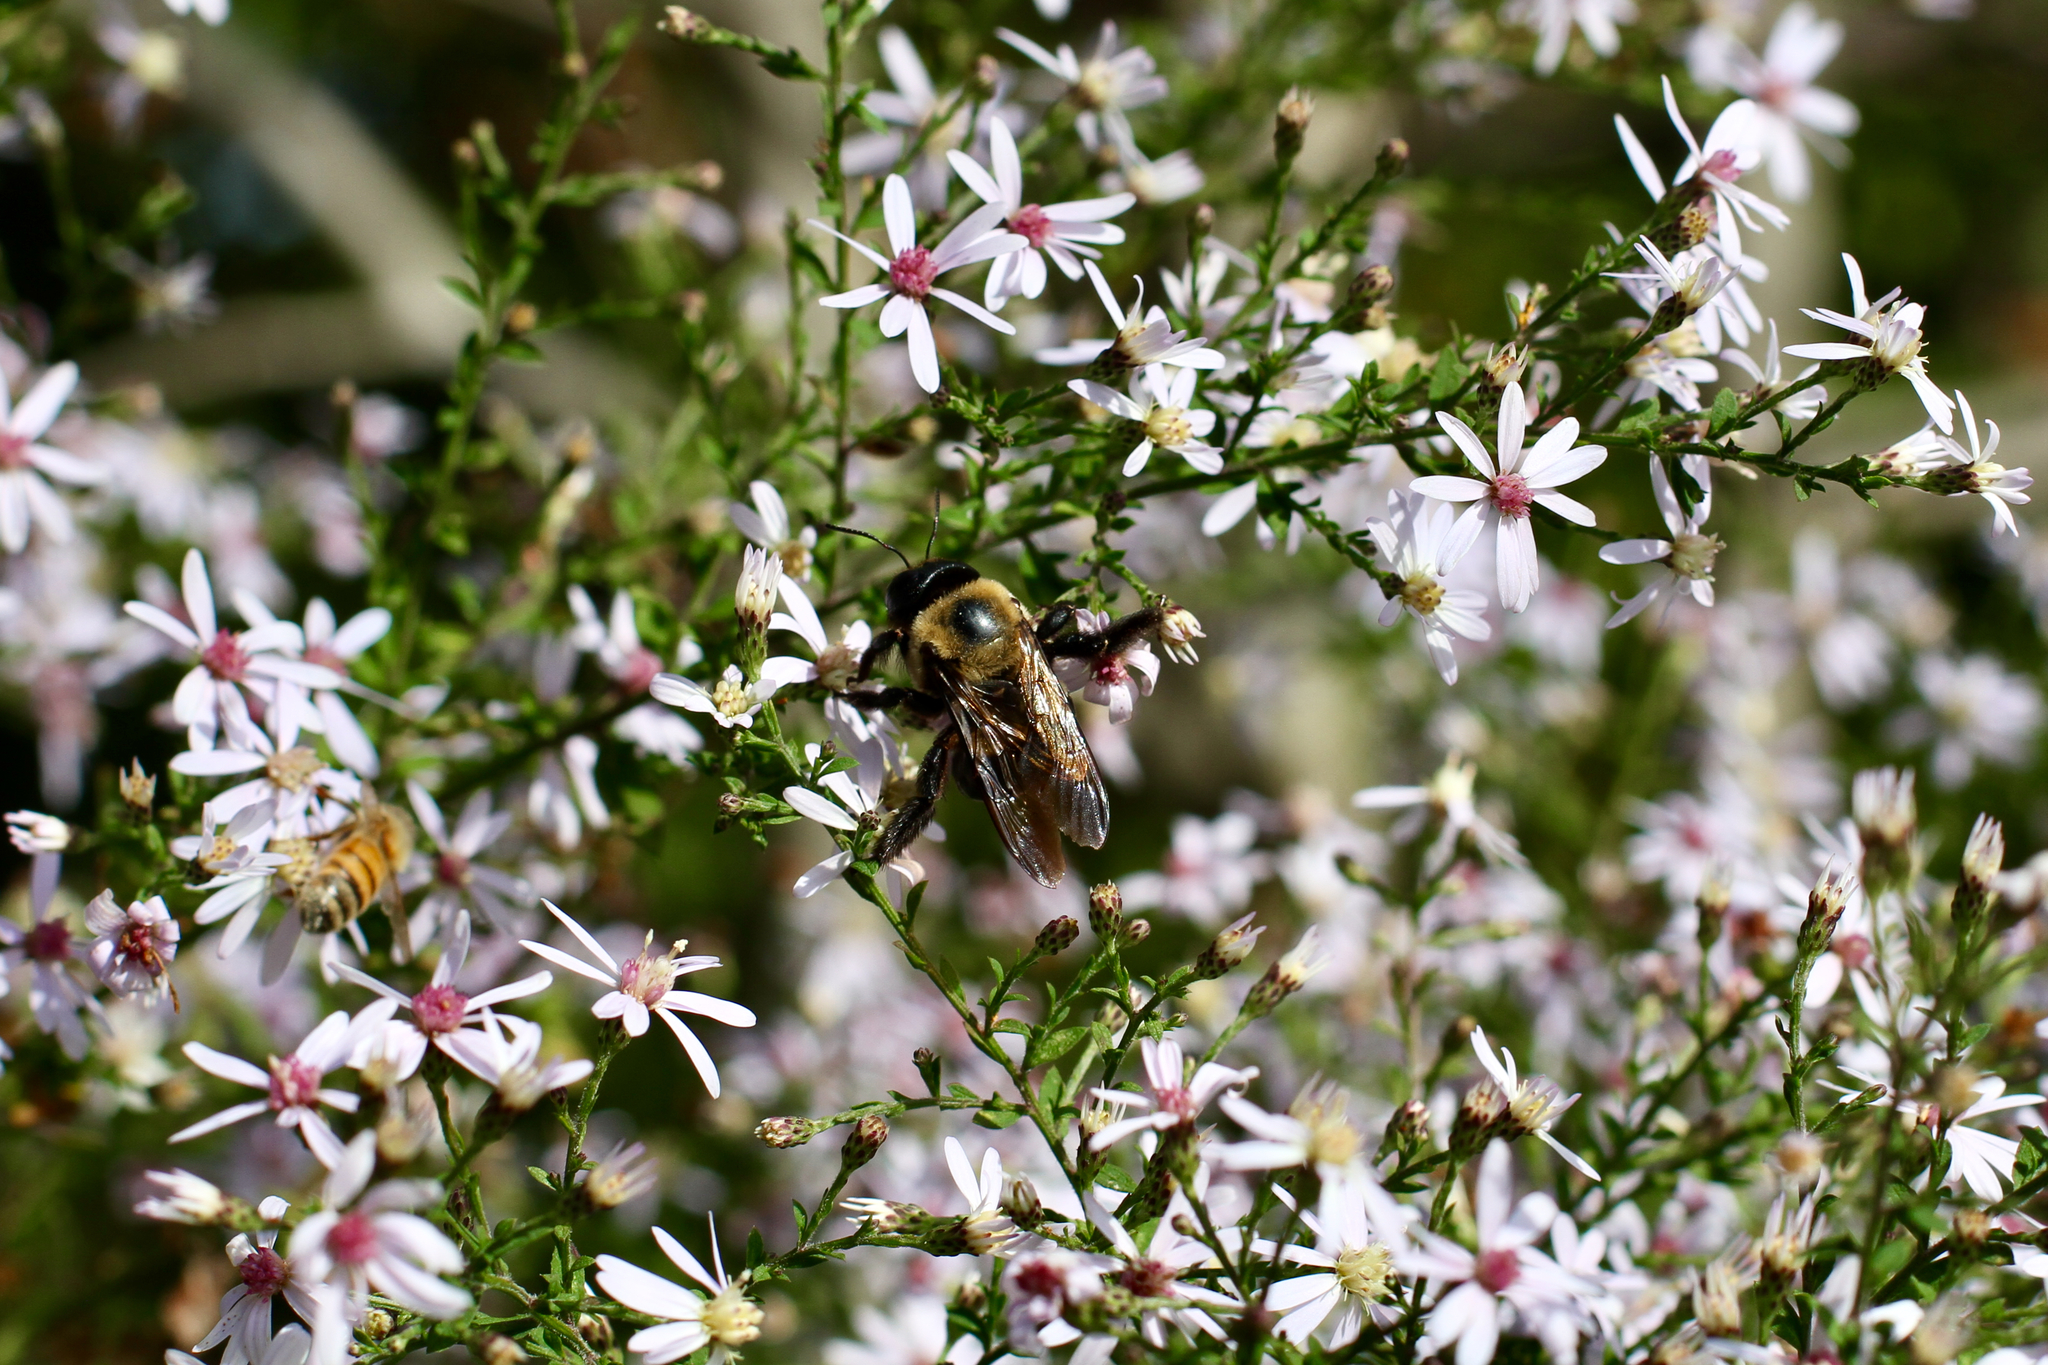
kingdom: Animalia
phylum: Arthropoda
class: Insecta
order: Hymenoptera
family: Apidae
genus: Xylocopa
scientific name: Xylocopa virginica
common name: Carpenter bee
